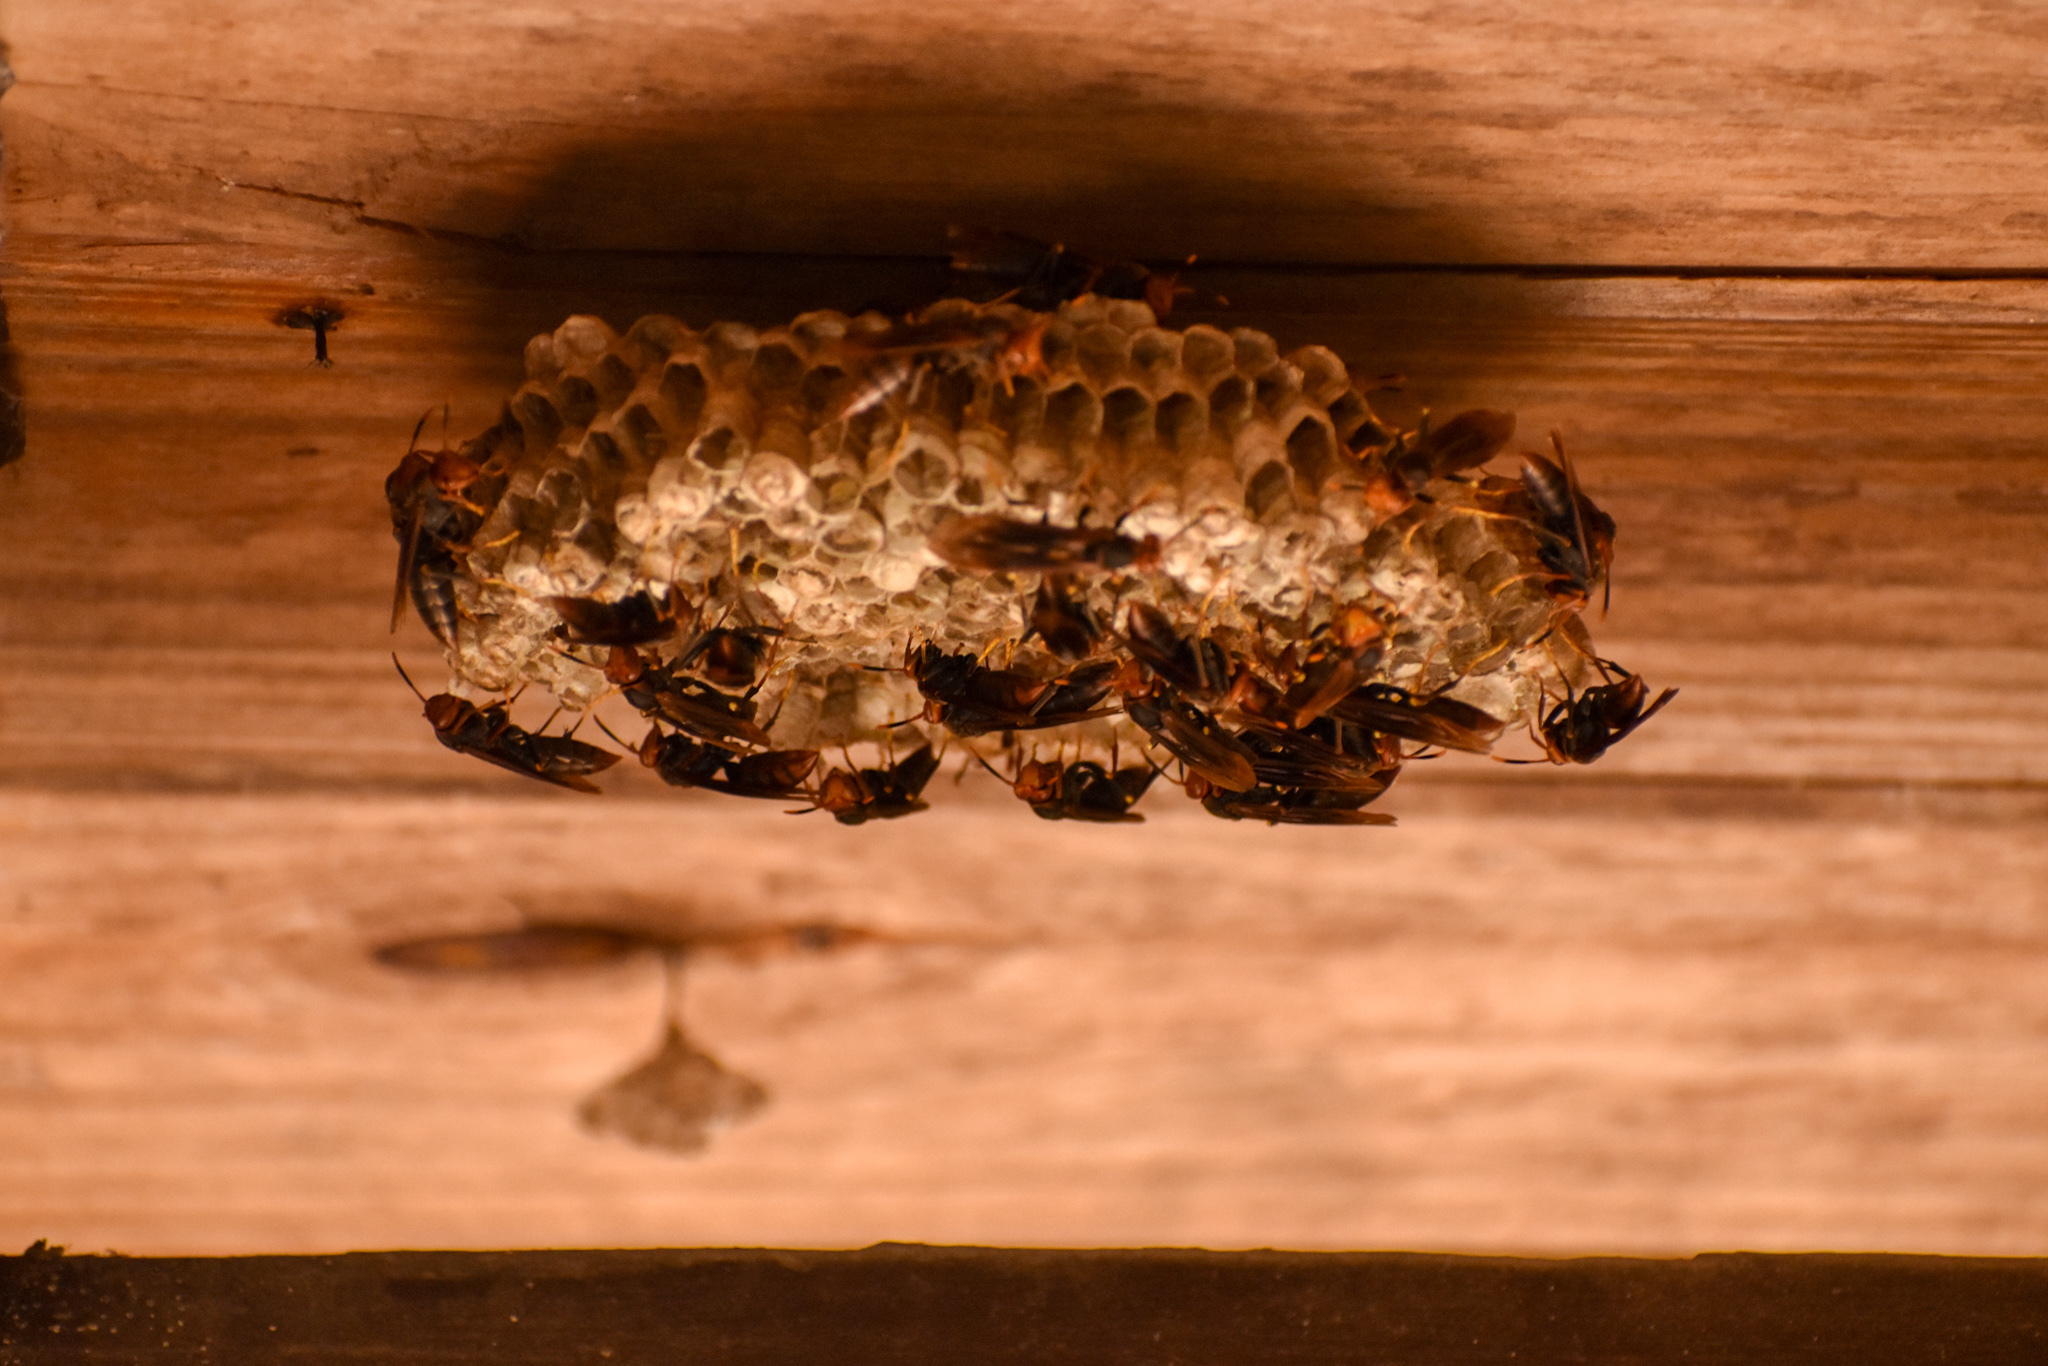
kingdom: Animalia
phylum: Arthropoda
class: Insecta
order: Hymenoptera
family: Pompilidae
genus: Aphanilopterus
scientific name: Aphanilopterus
